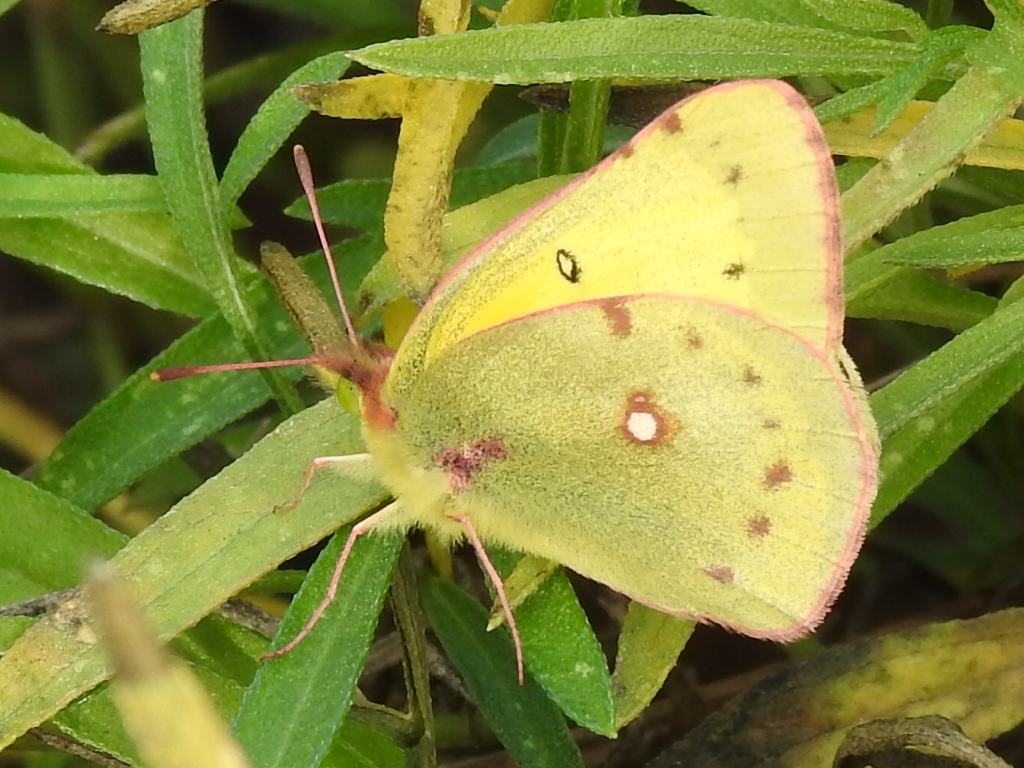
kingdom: Animalia
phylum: Arthropoda
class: Insecta
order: Lepidoptera
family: Pieridae
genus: Colias
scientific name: Colias eurytheme
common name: Alfalfa butterfly
